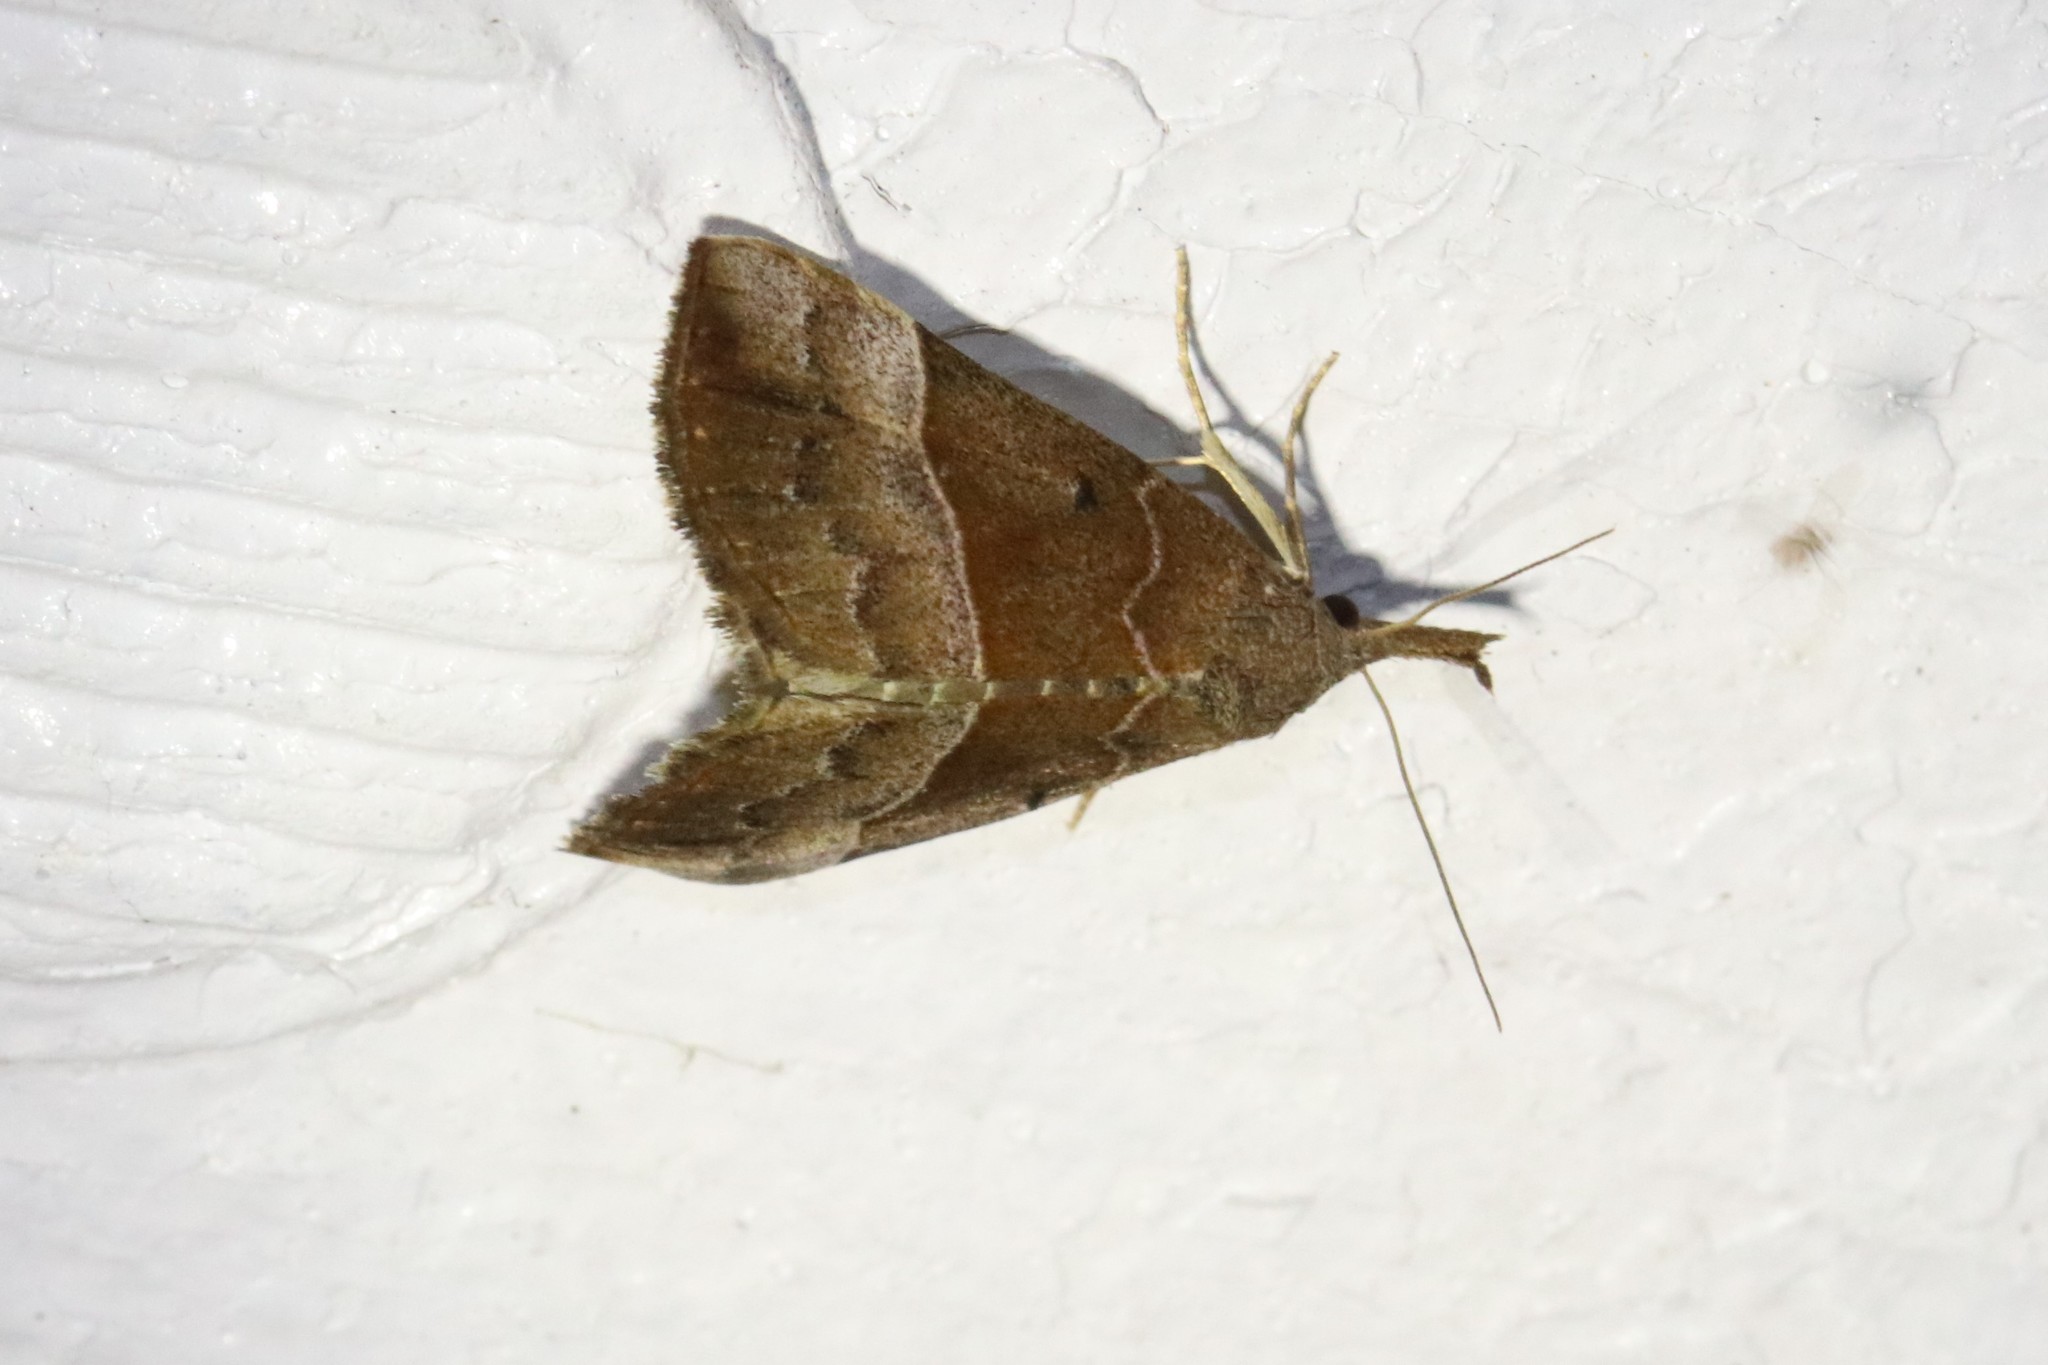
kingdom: Animalia
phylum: Arthropoda
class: Insecta
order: Lepidoptera
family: Erebidae
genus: Hypena
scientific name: Hypena eductalis
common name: Red-footed snout
